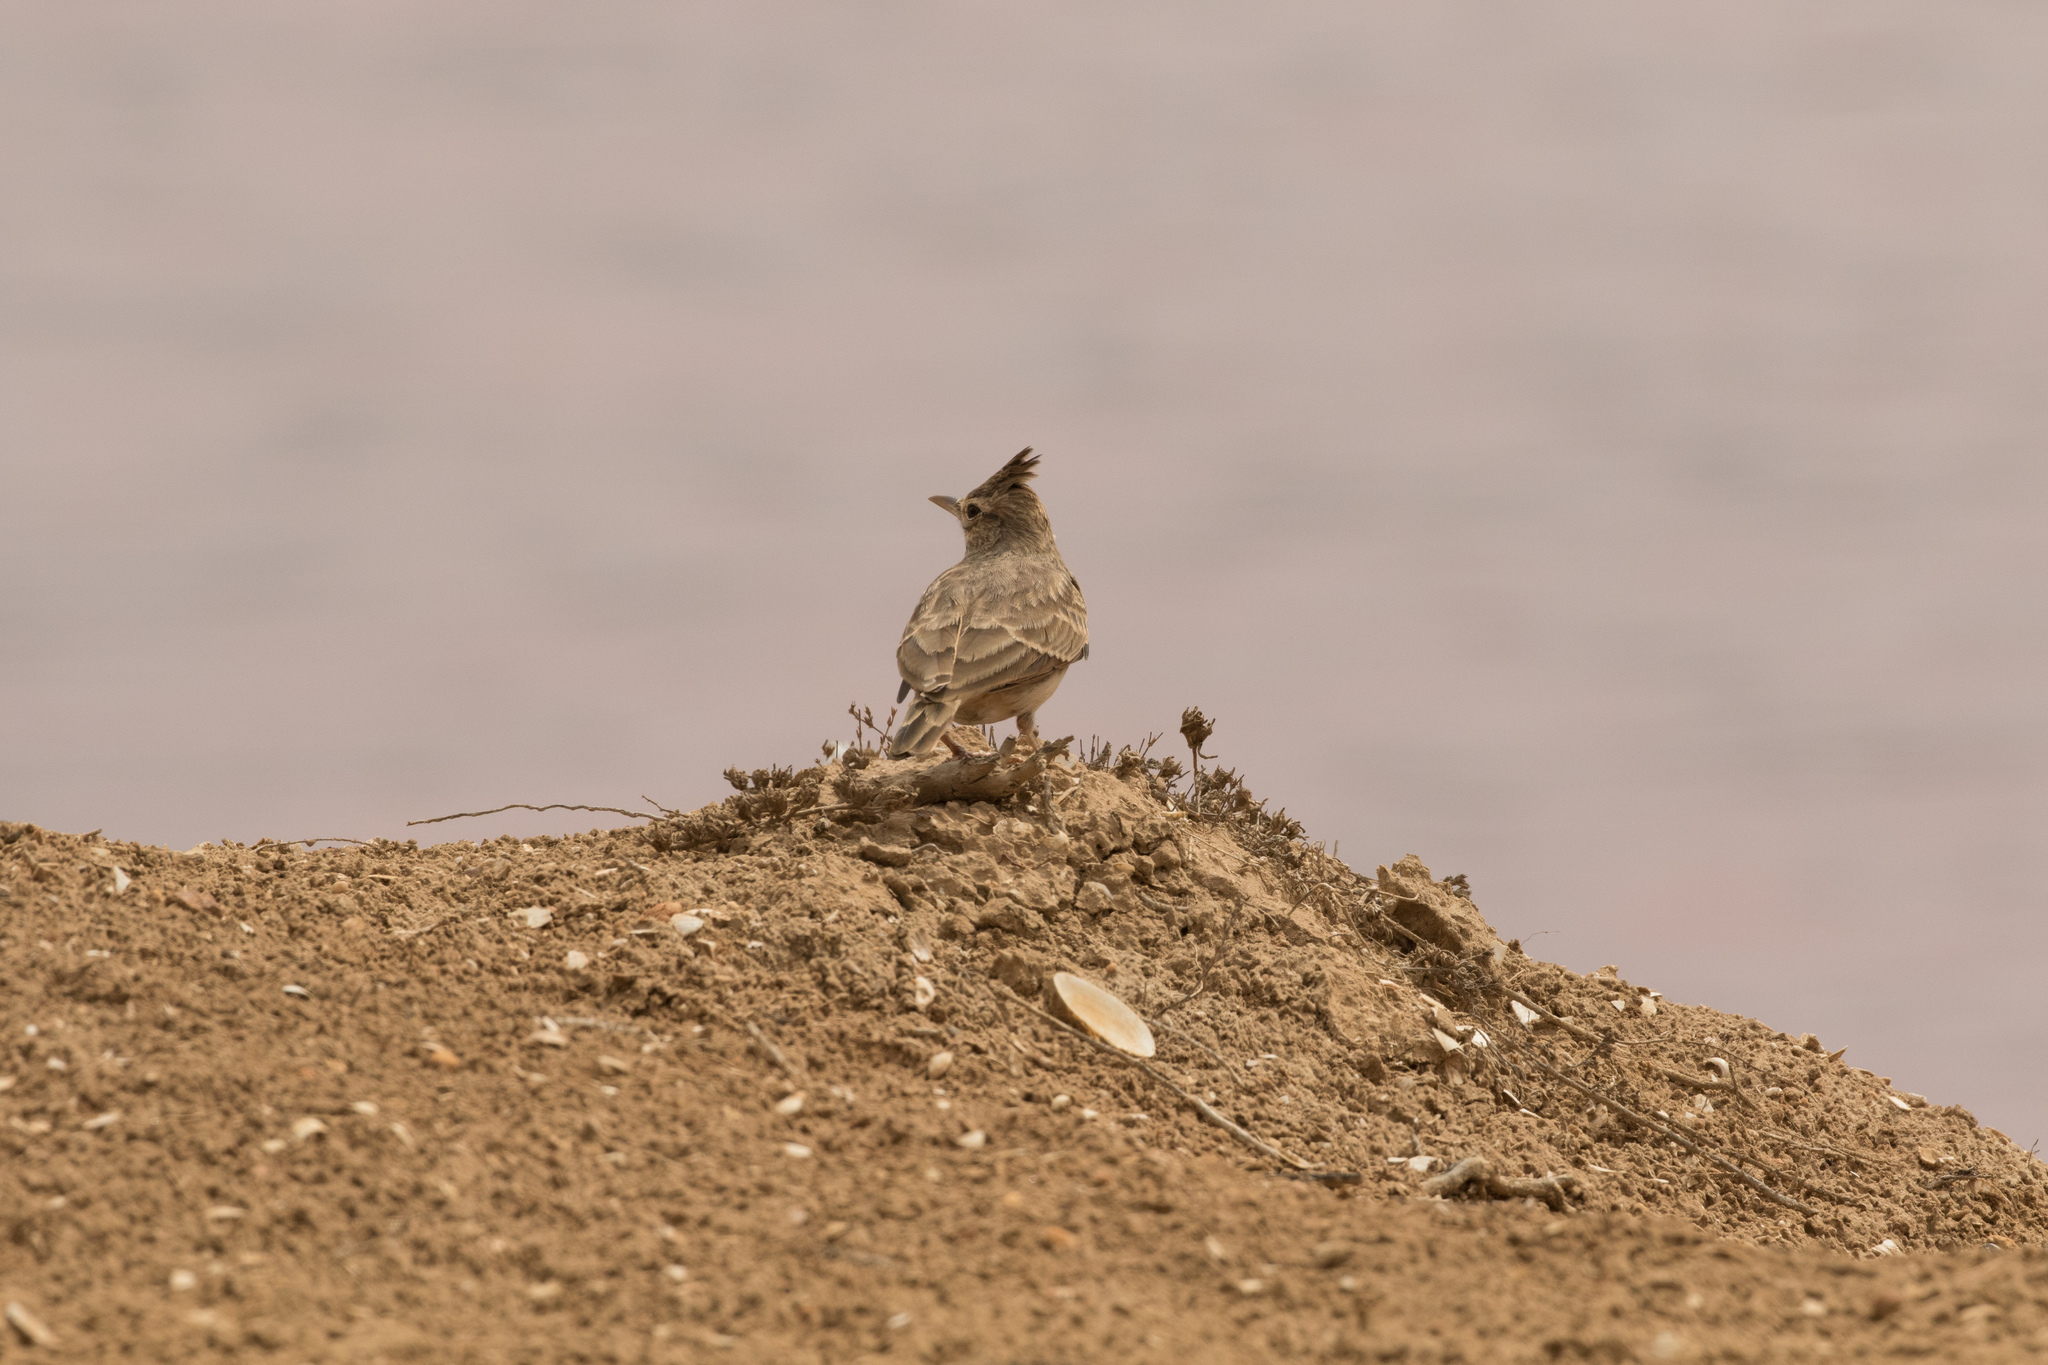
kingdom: Animalia
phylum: Chordata
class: Aves
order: Passeriformes
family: Alaudidae
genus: Galerida
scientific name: Galerida cristata
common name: Crested lark
